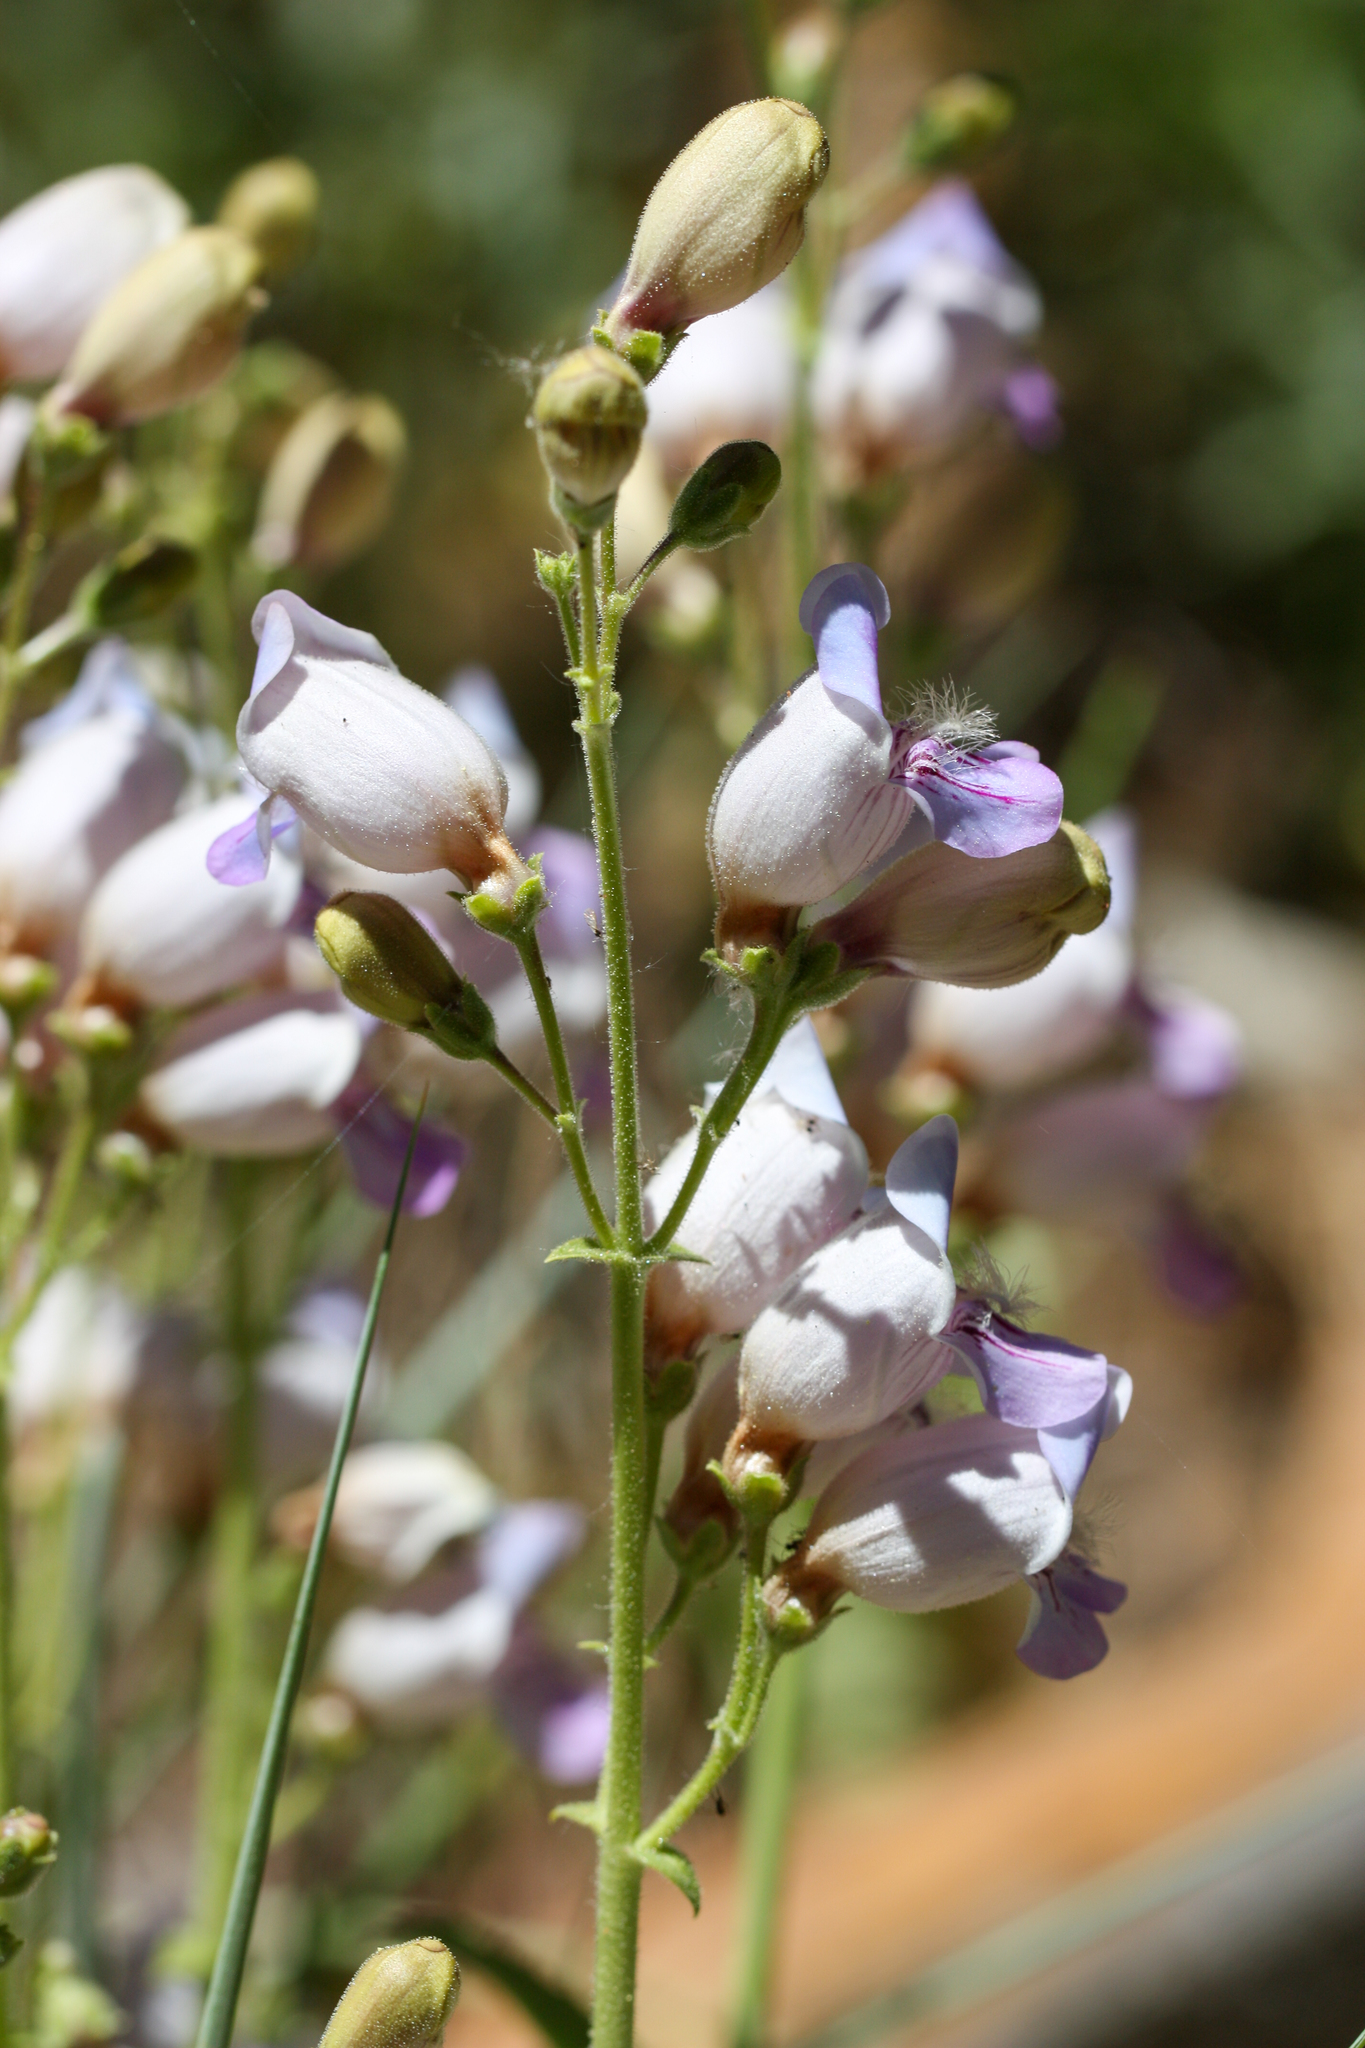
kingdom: Plantae
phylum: Tracheophyta
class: Magnoliopsida
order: Lamiales
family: Plantaginaceae
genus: Penstemon
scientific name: Penstemon grinnellii
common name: Grinnell's beardtongue
